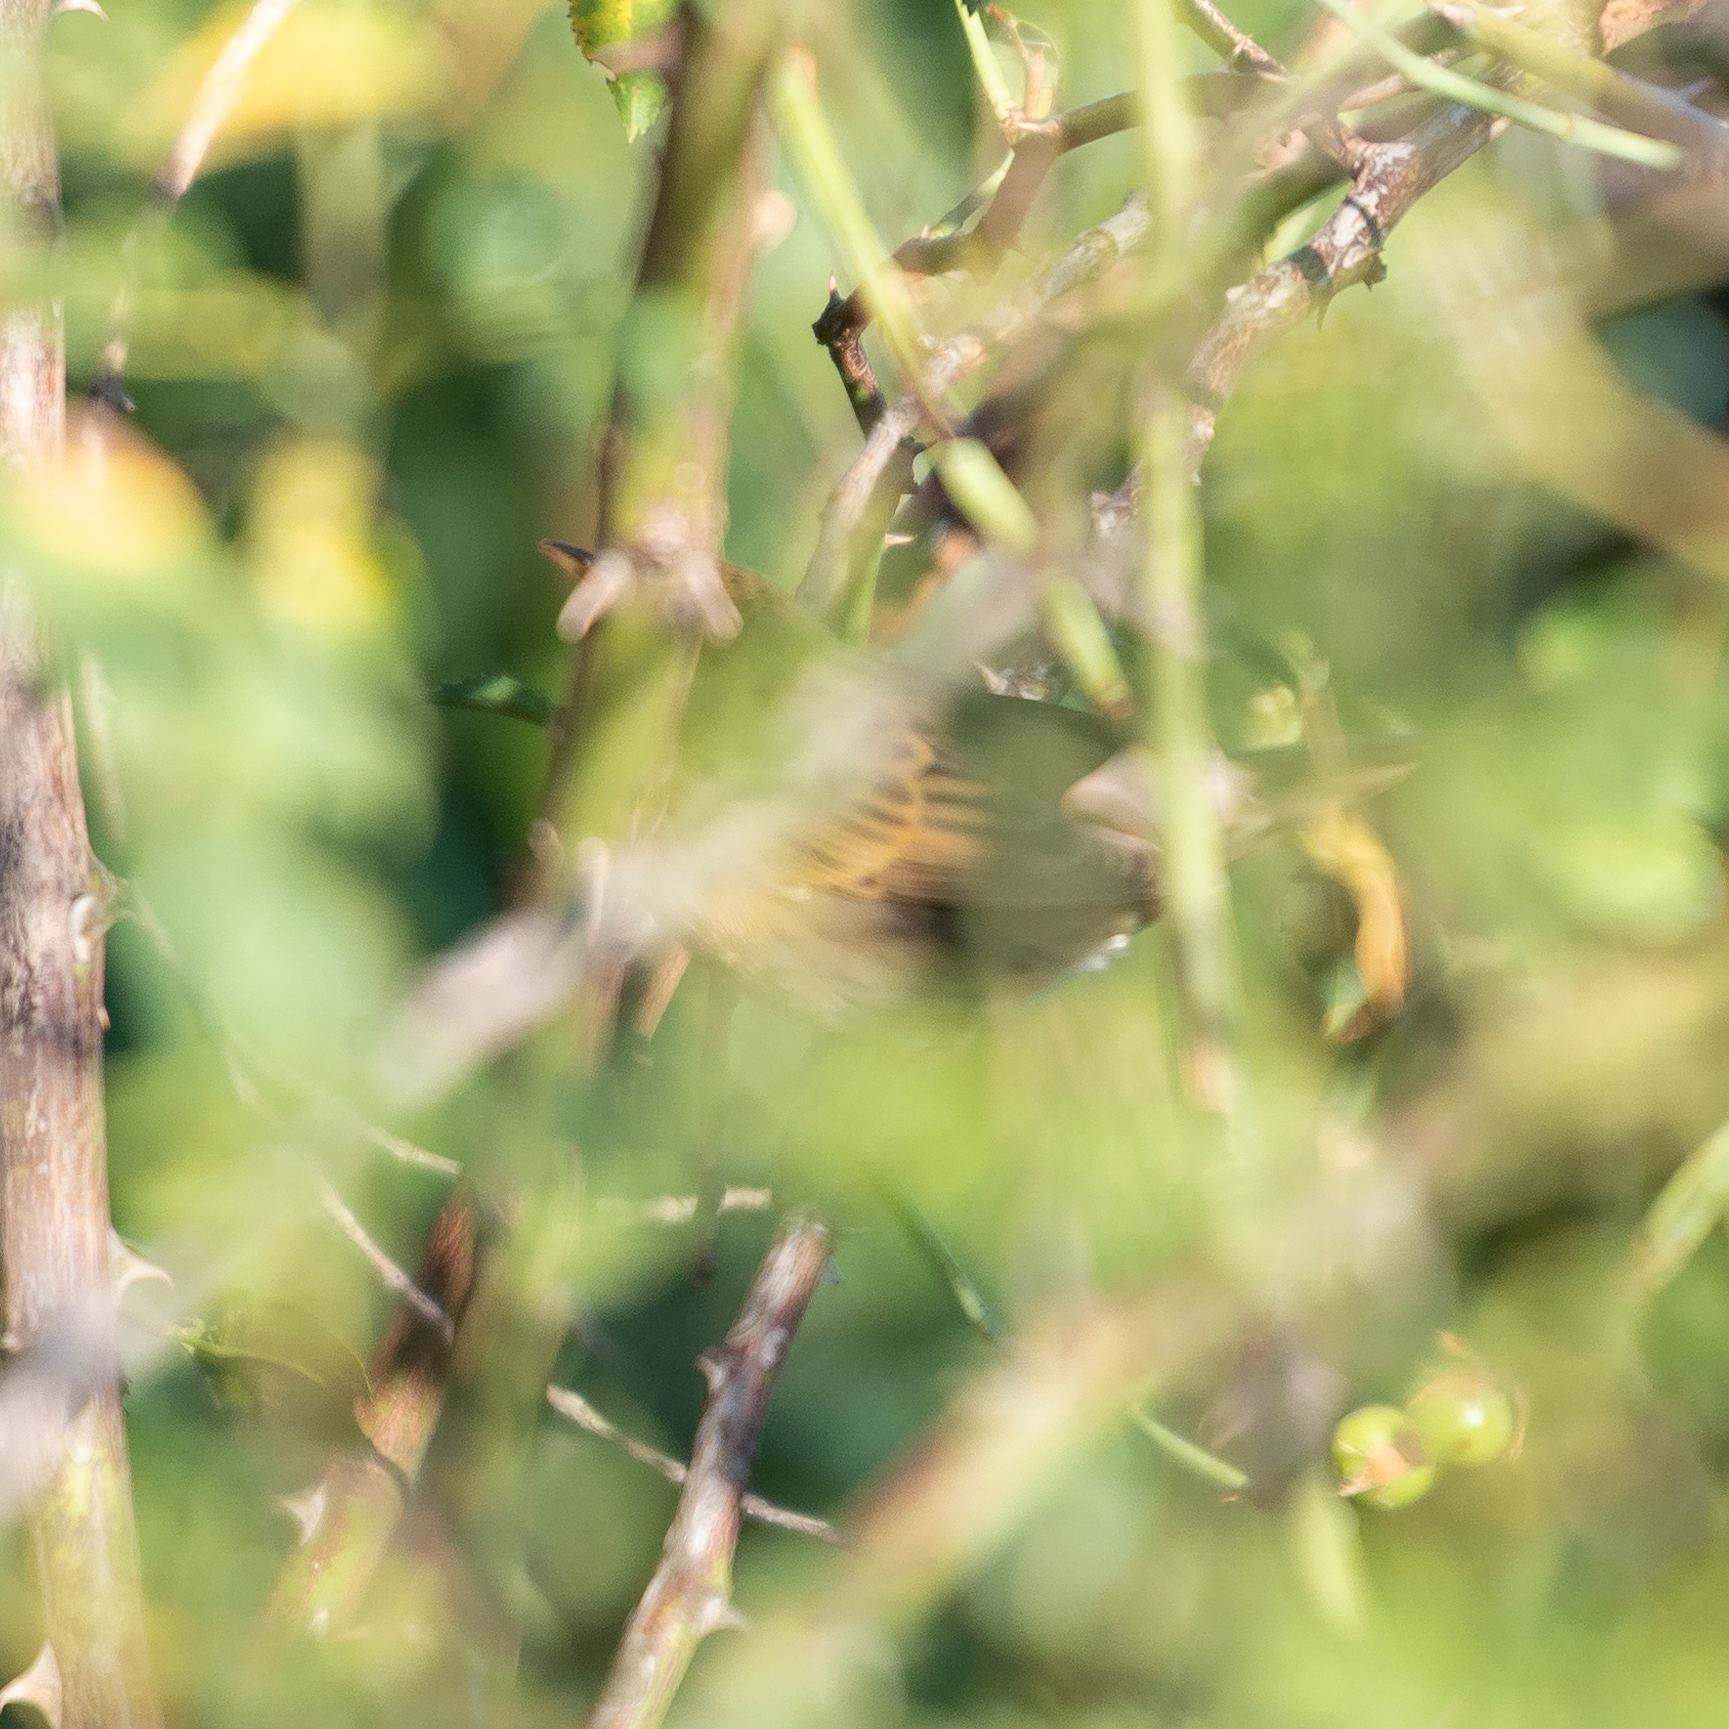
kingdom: Animalia
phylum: Chordata
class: Aves
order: Passeriformes
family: Locustellidae
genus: Locustella
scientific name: Locustella naevia
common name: Common grasshopper warbler
